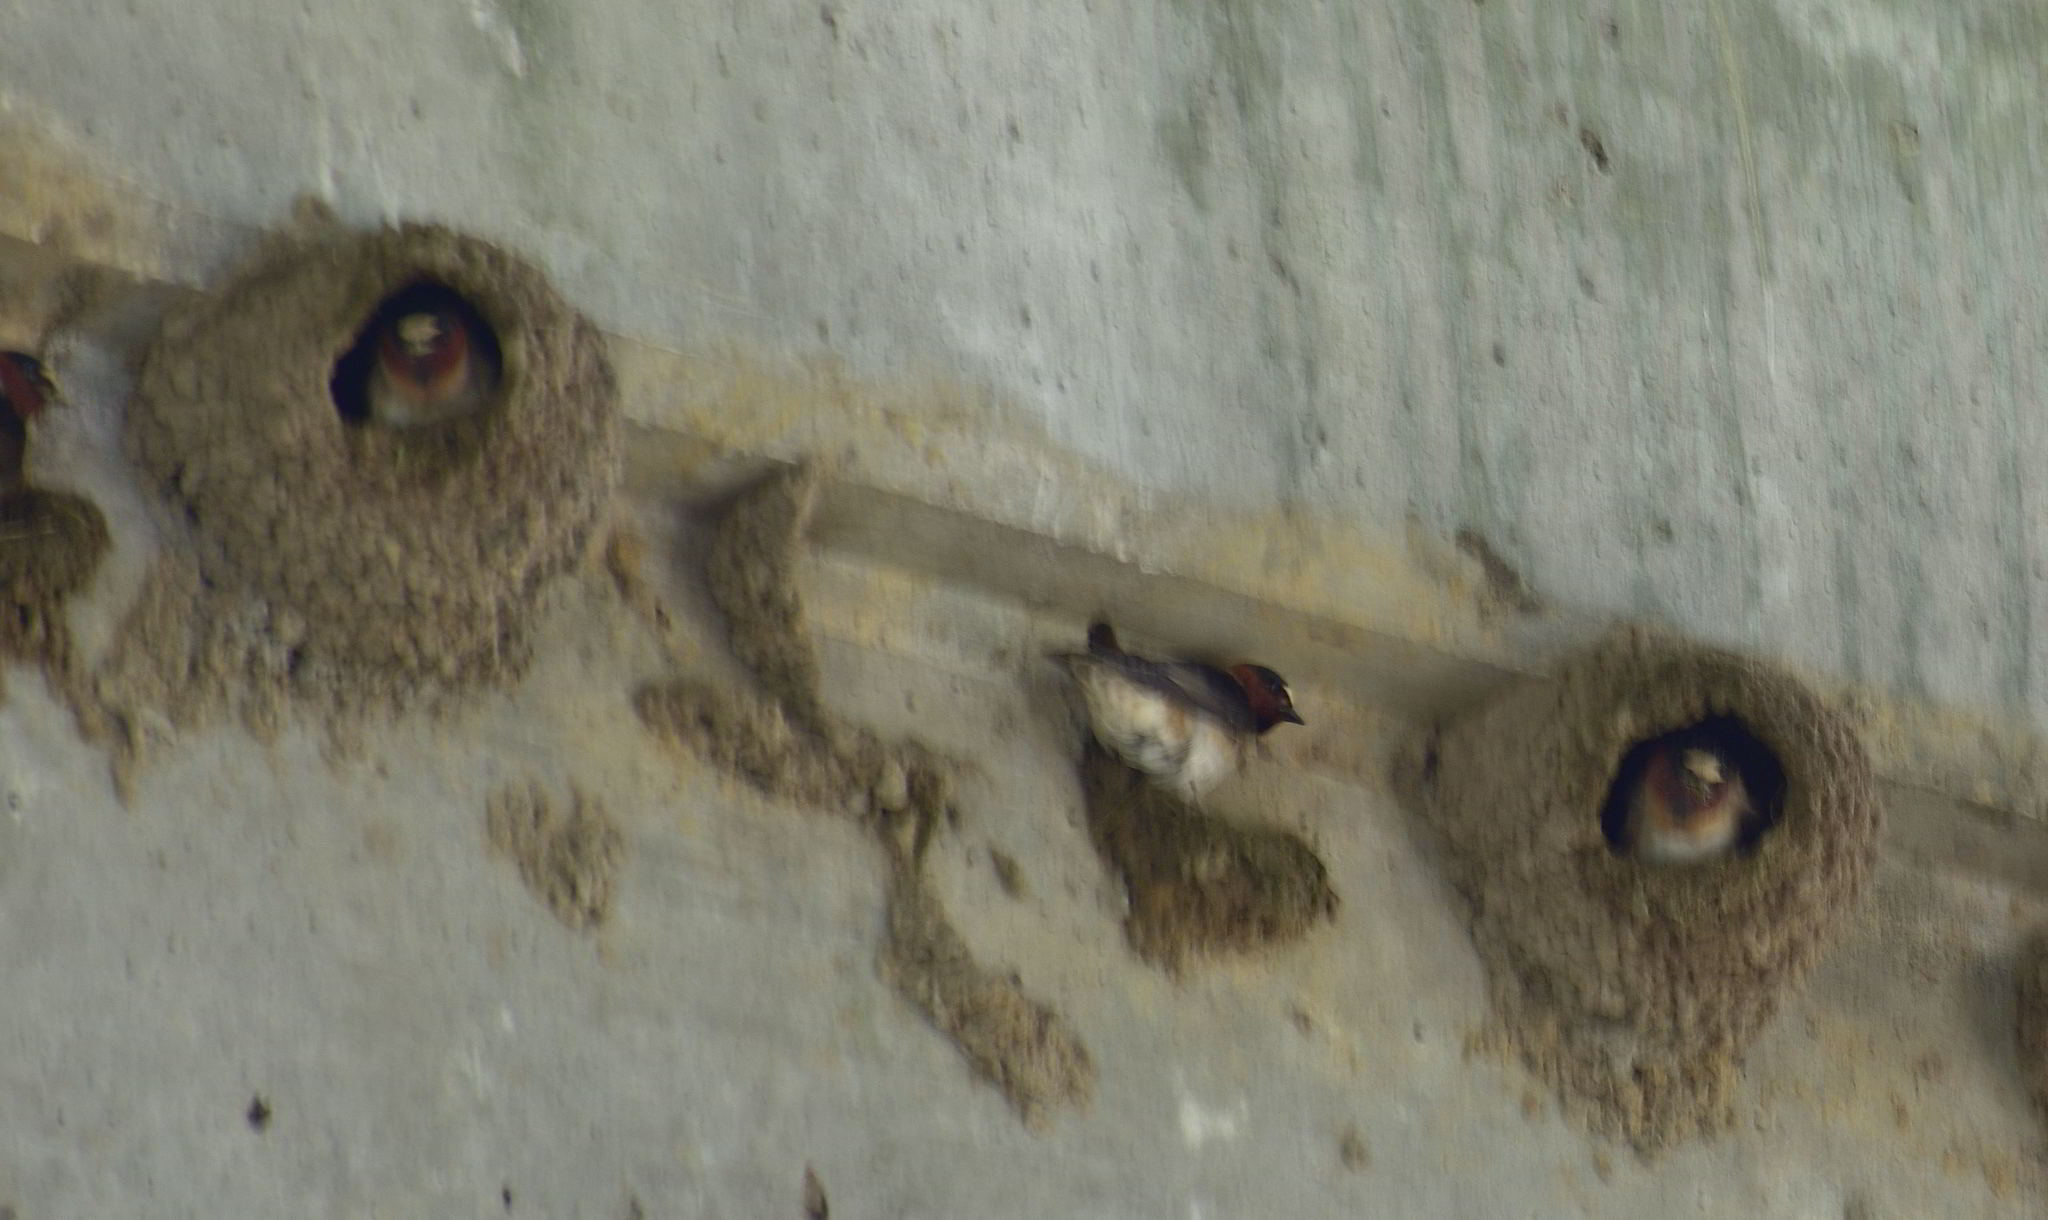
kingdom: Animalia
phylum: Chordata
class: Aves
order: Passeriformes
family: Hirundinidae
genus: Petrochelidon
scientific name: Petrochelidon pyrrhonota
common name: American cliff swallow
